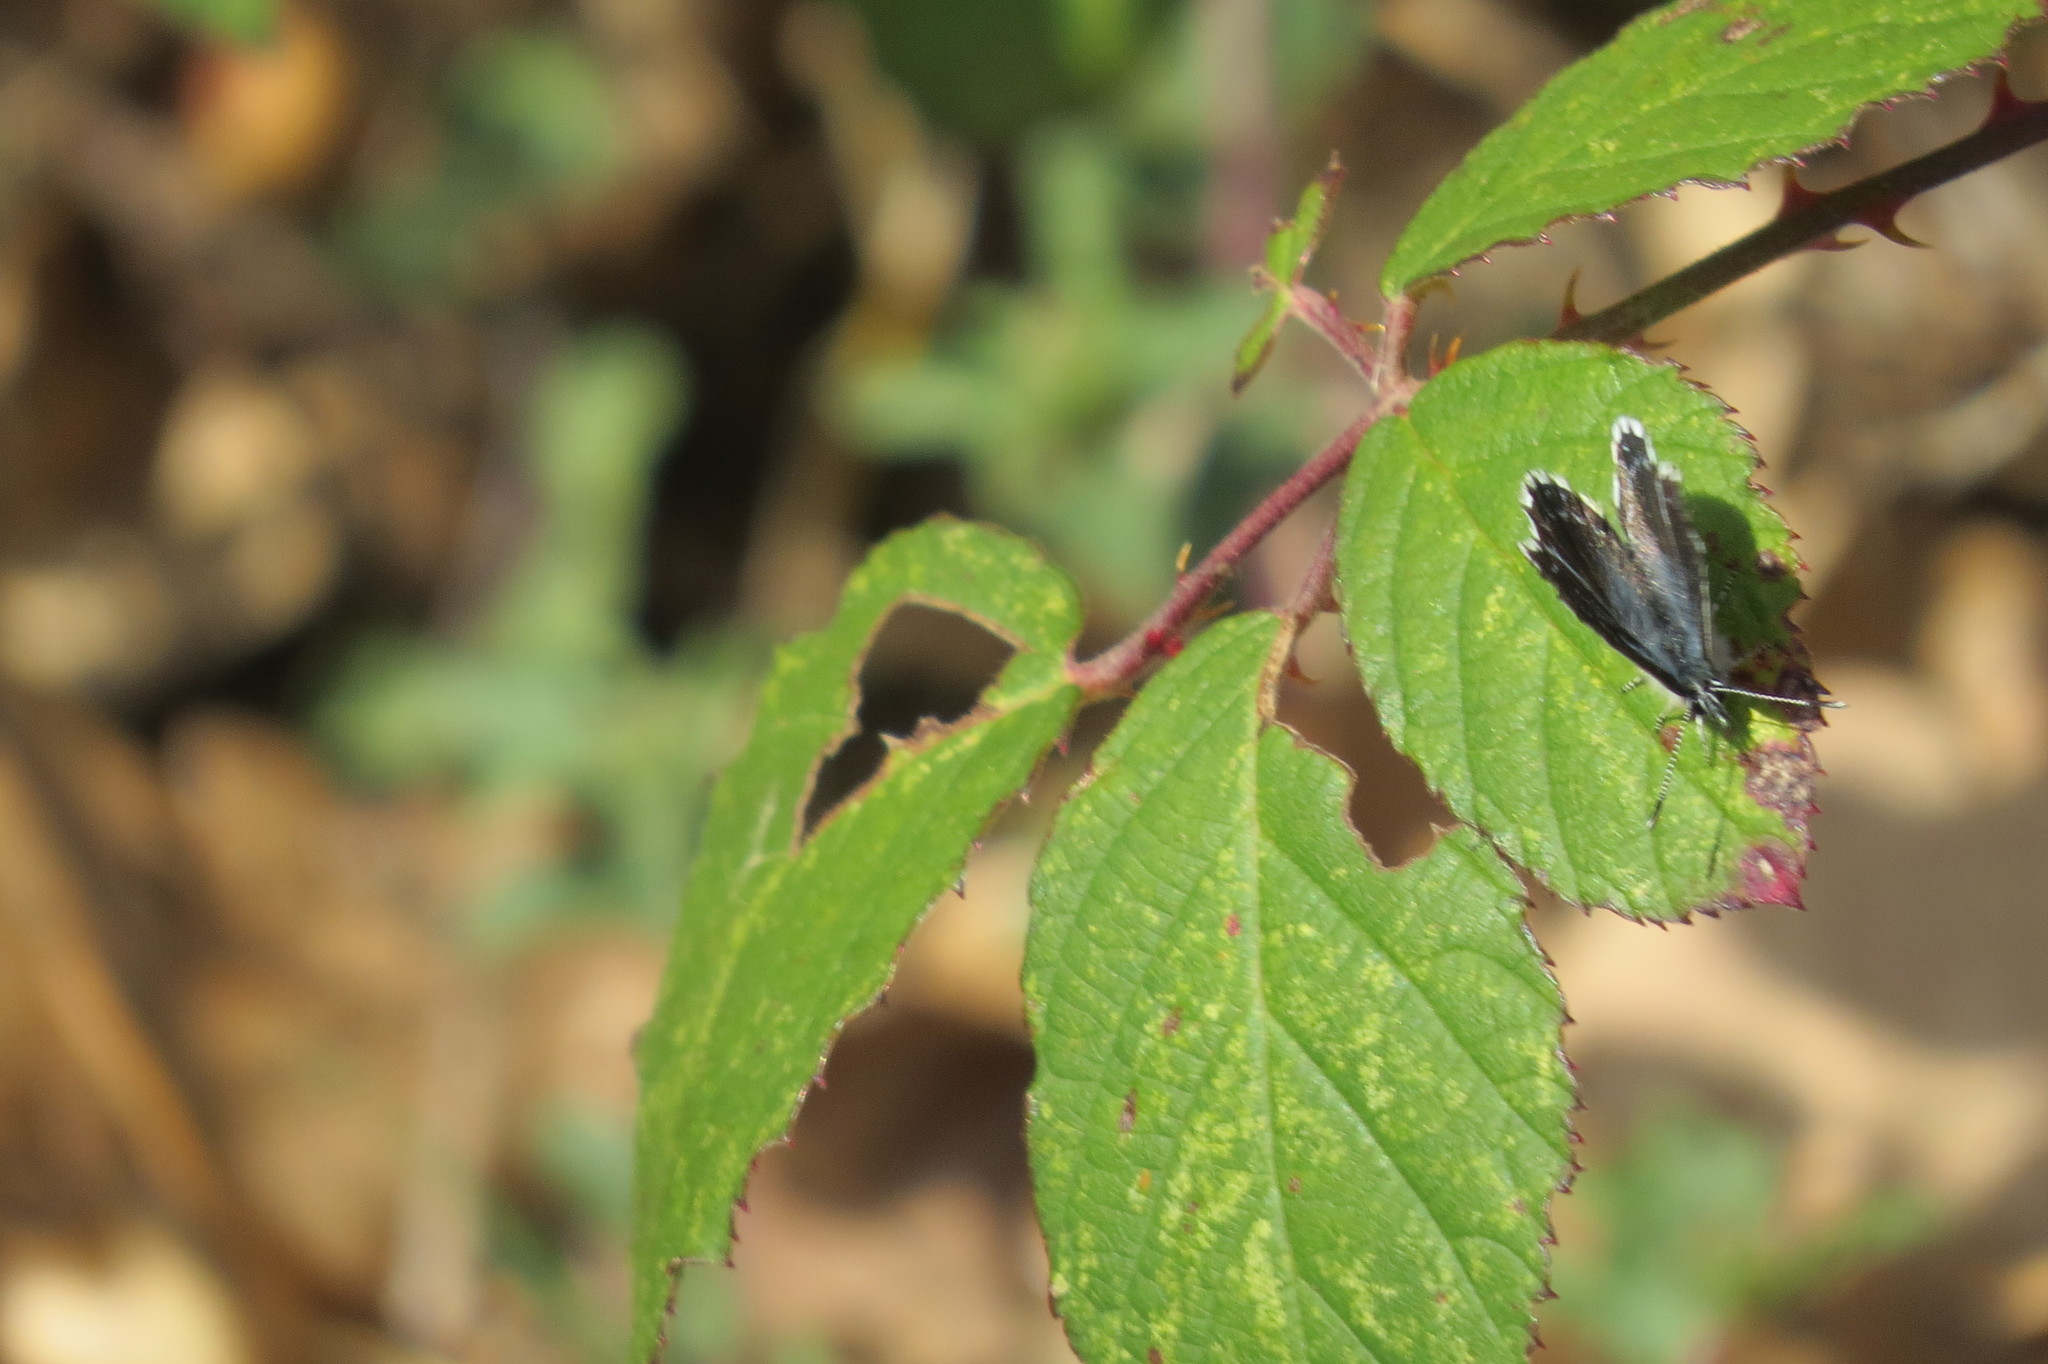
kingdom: Animalia
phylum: Arthropoda
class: Insecta
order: Lepidoptera
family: Lycaenidae
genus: Scolitantides
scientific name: Scolitantides orion
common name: Chequered blue
